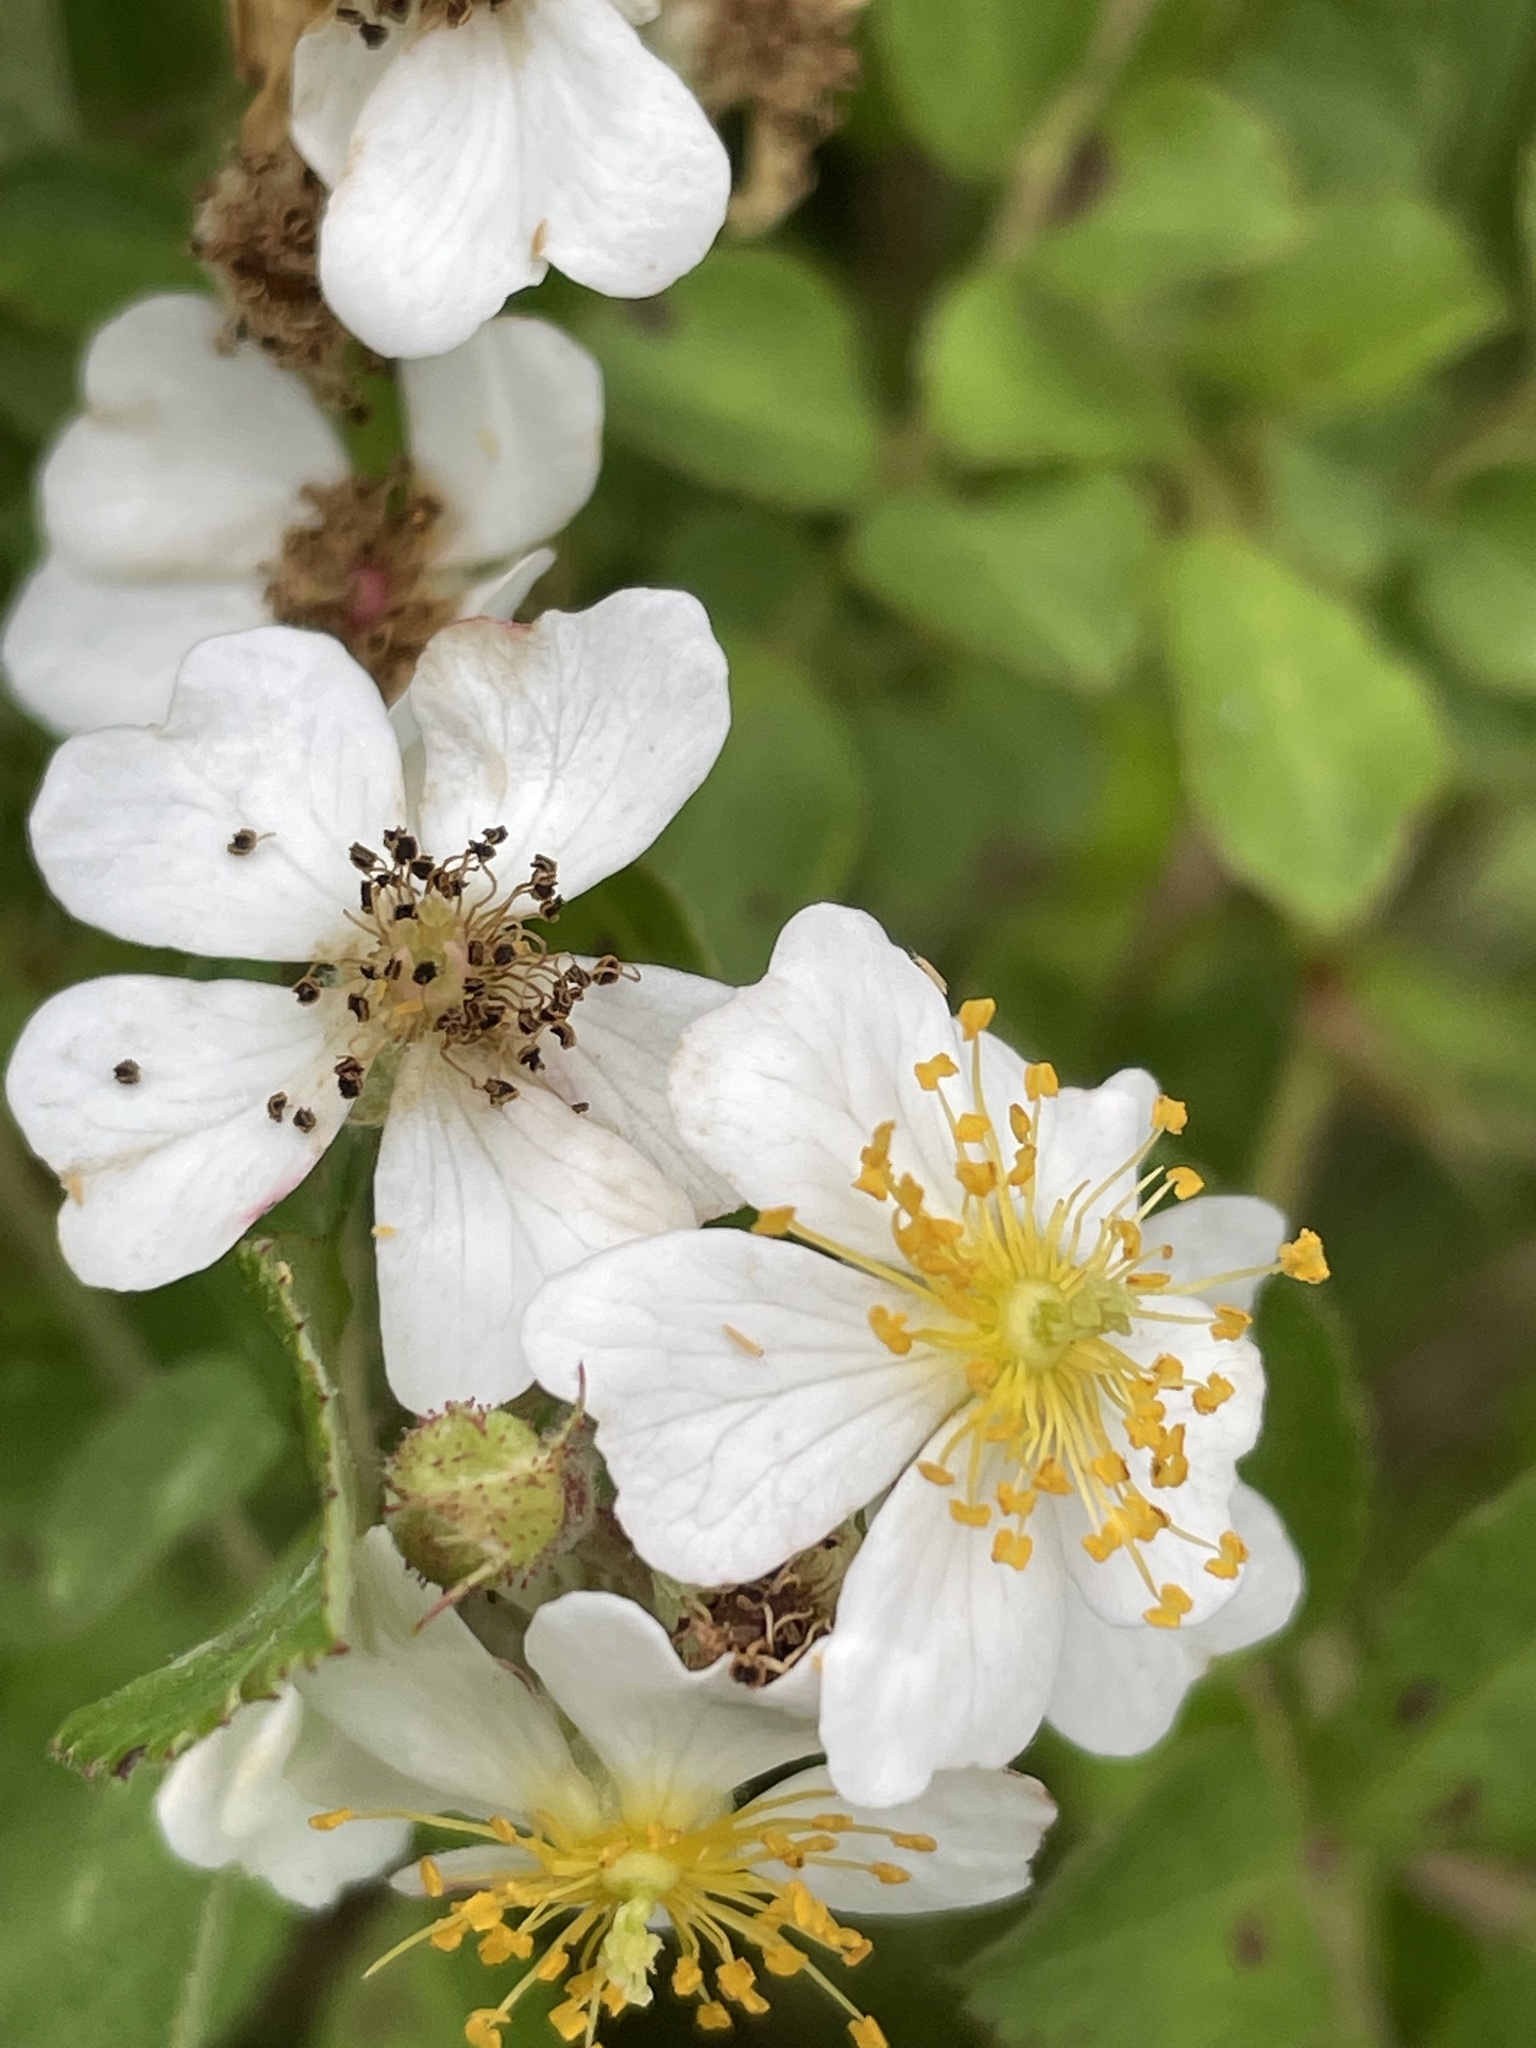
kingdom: Plantae
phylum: Tracheophyta
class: Magnoliopsida
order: Rosales
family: Rosaceae
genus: Rosa
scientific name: Rosa multiflora
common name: Multiflora rose
